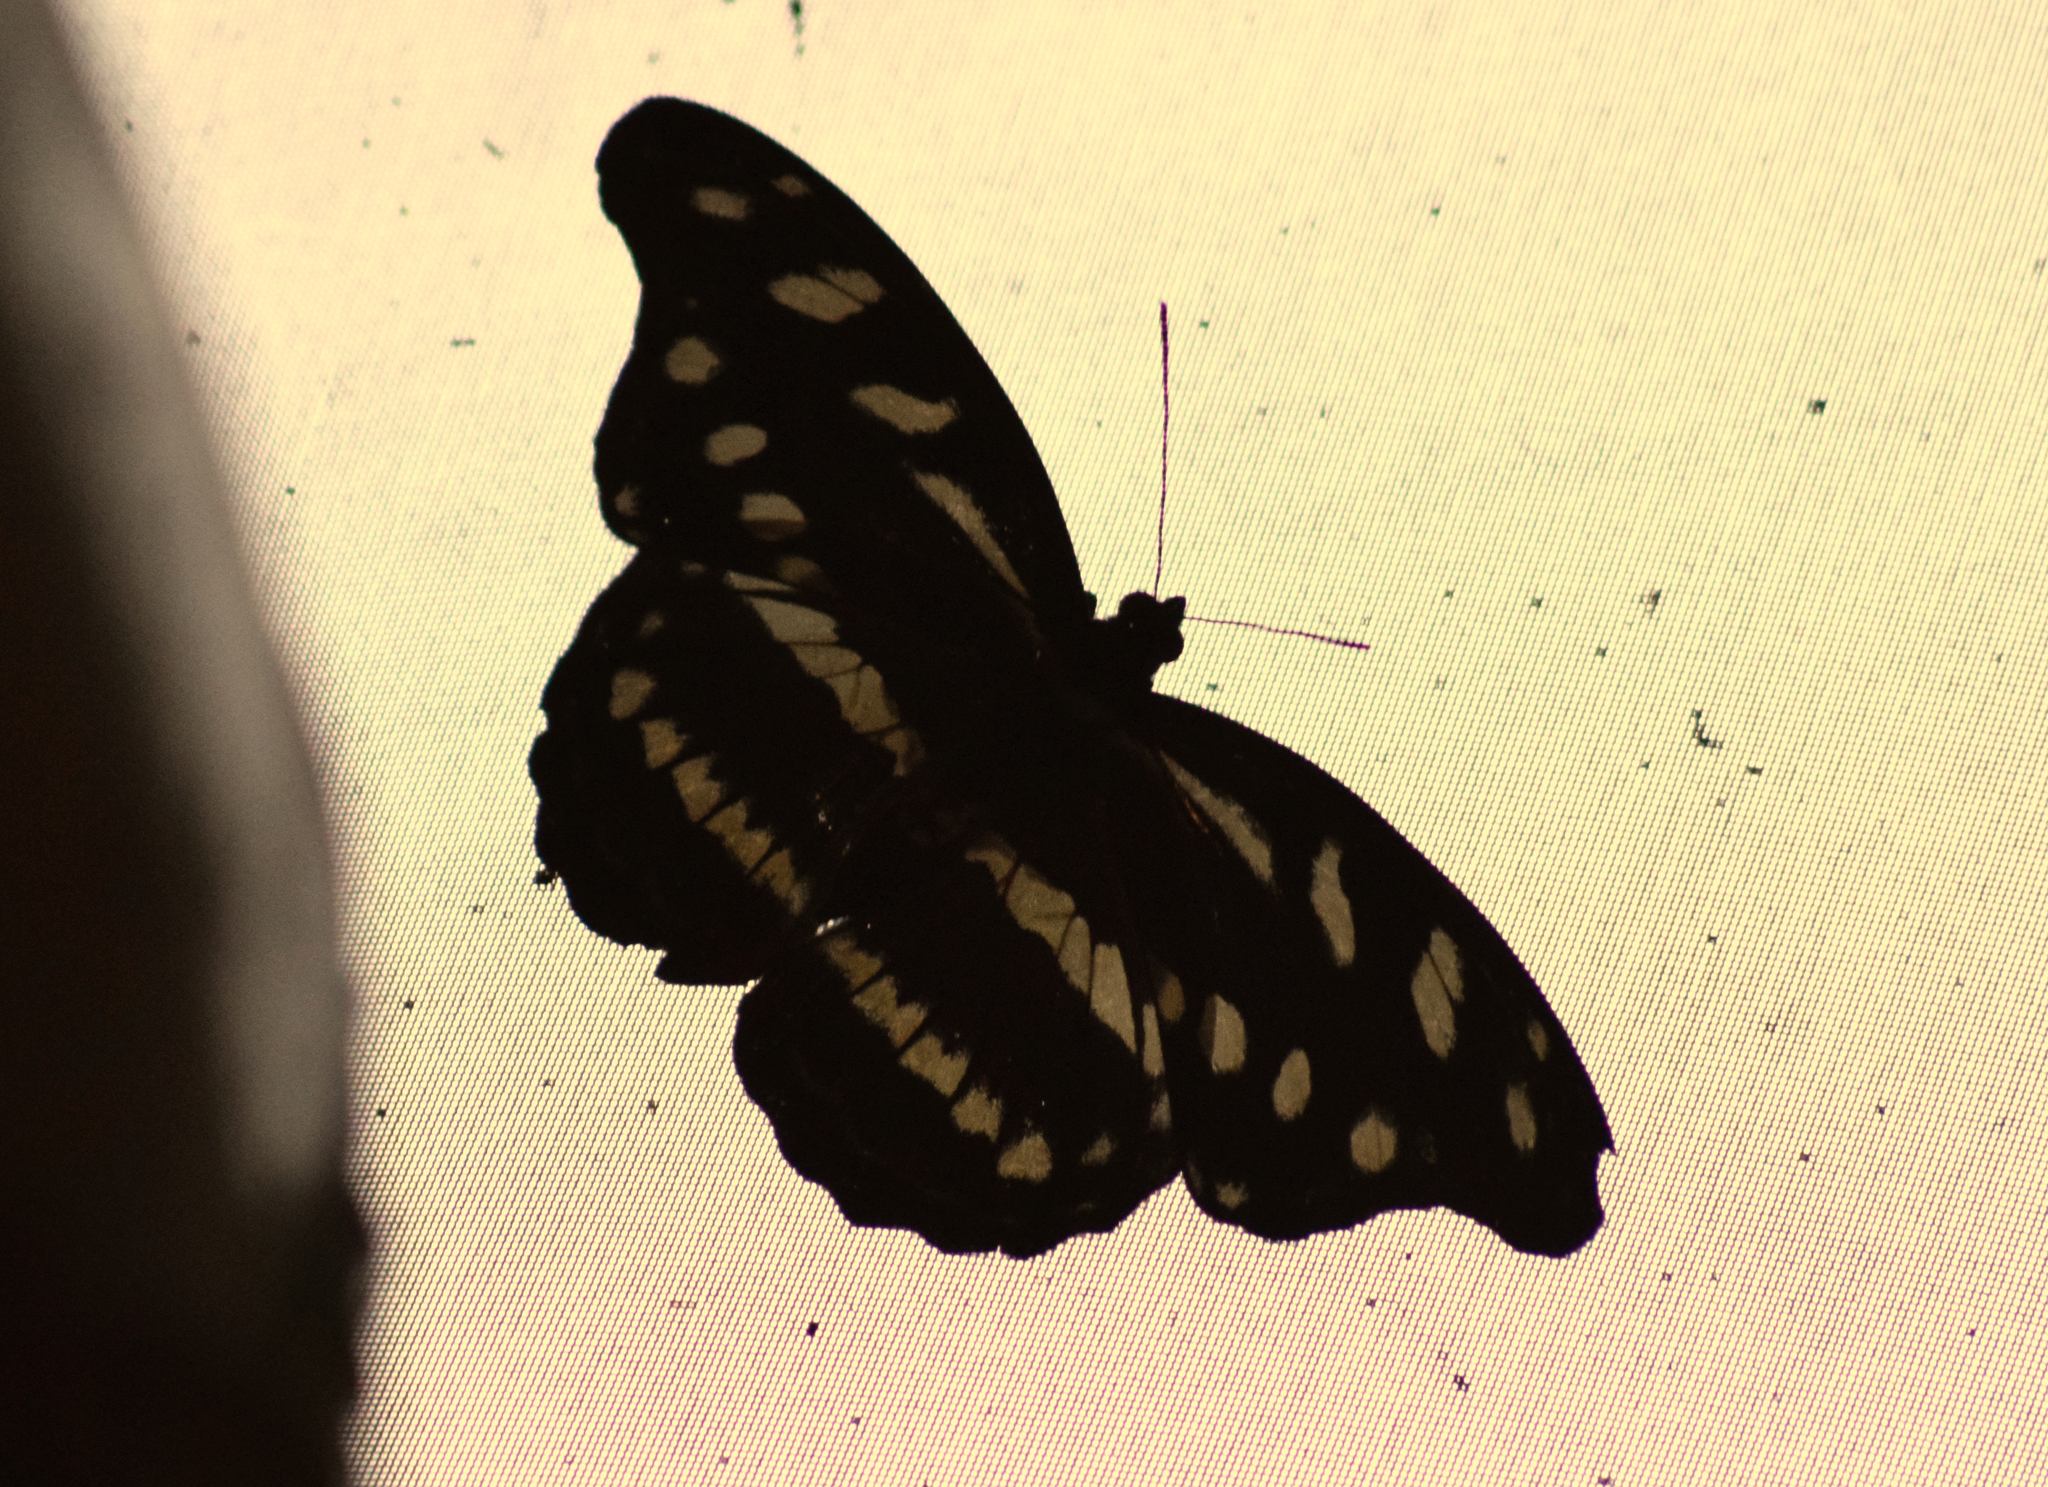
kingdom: Animalia
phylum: Arthropoda
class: Insecta
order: Lepidoptera
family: Nymphalidae
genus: Catonephele
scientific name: Catonephele acontius
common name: Unspotted firewing
